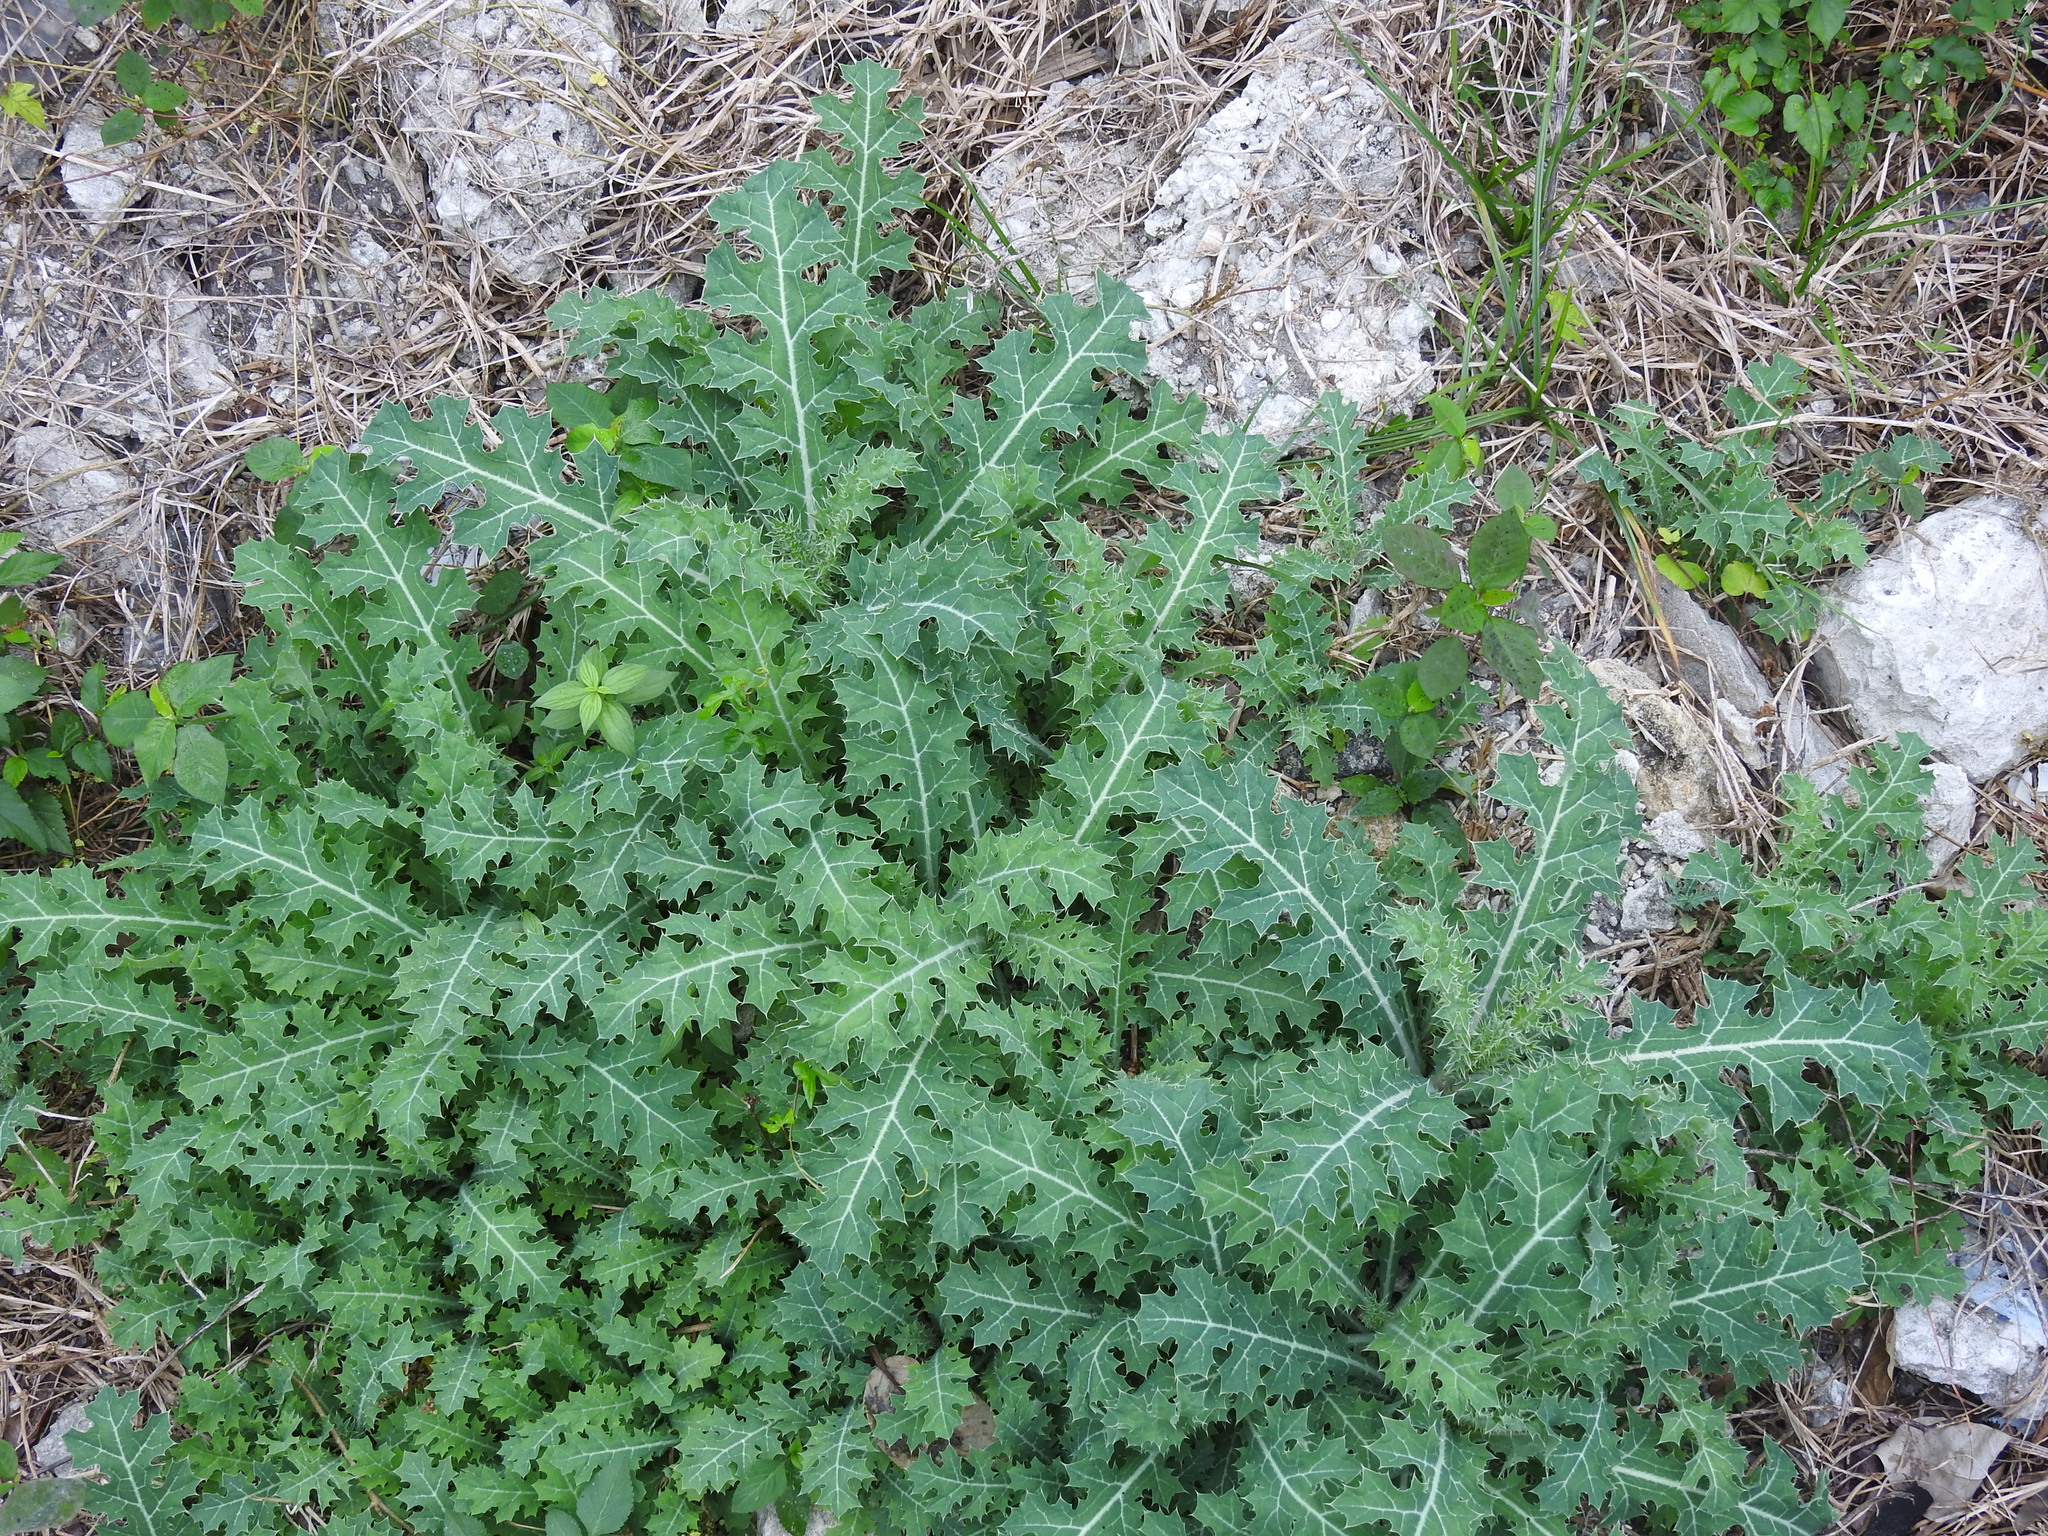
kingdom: Plantae
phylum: Tracheophyta
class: Magnoliopsida
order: Ranunculales
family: Papaveraceae
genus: Argemone
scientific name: Argemone mexicana
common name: Mexican poppy
